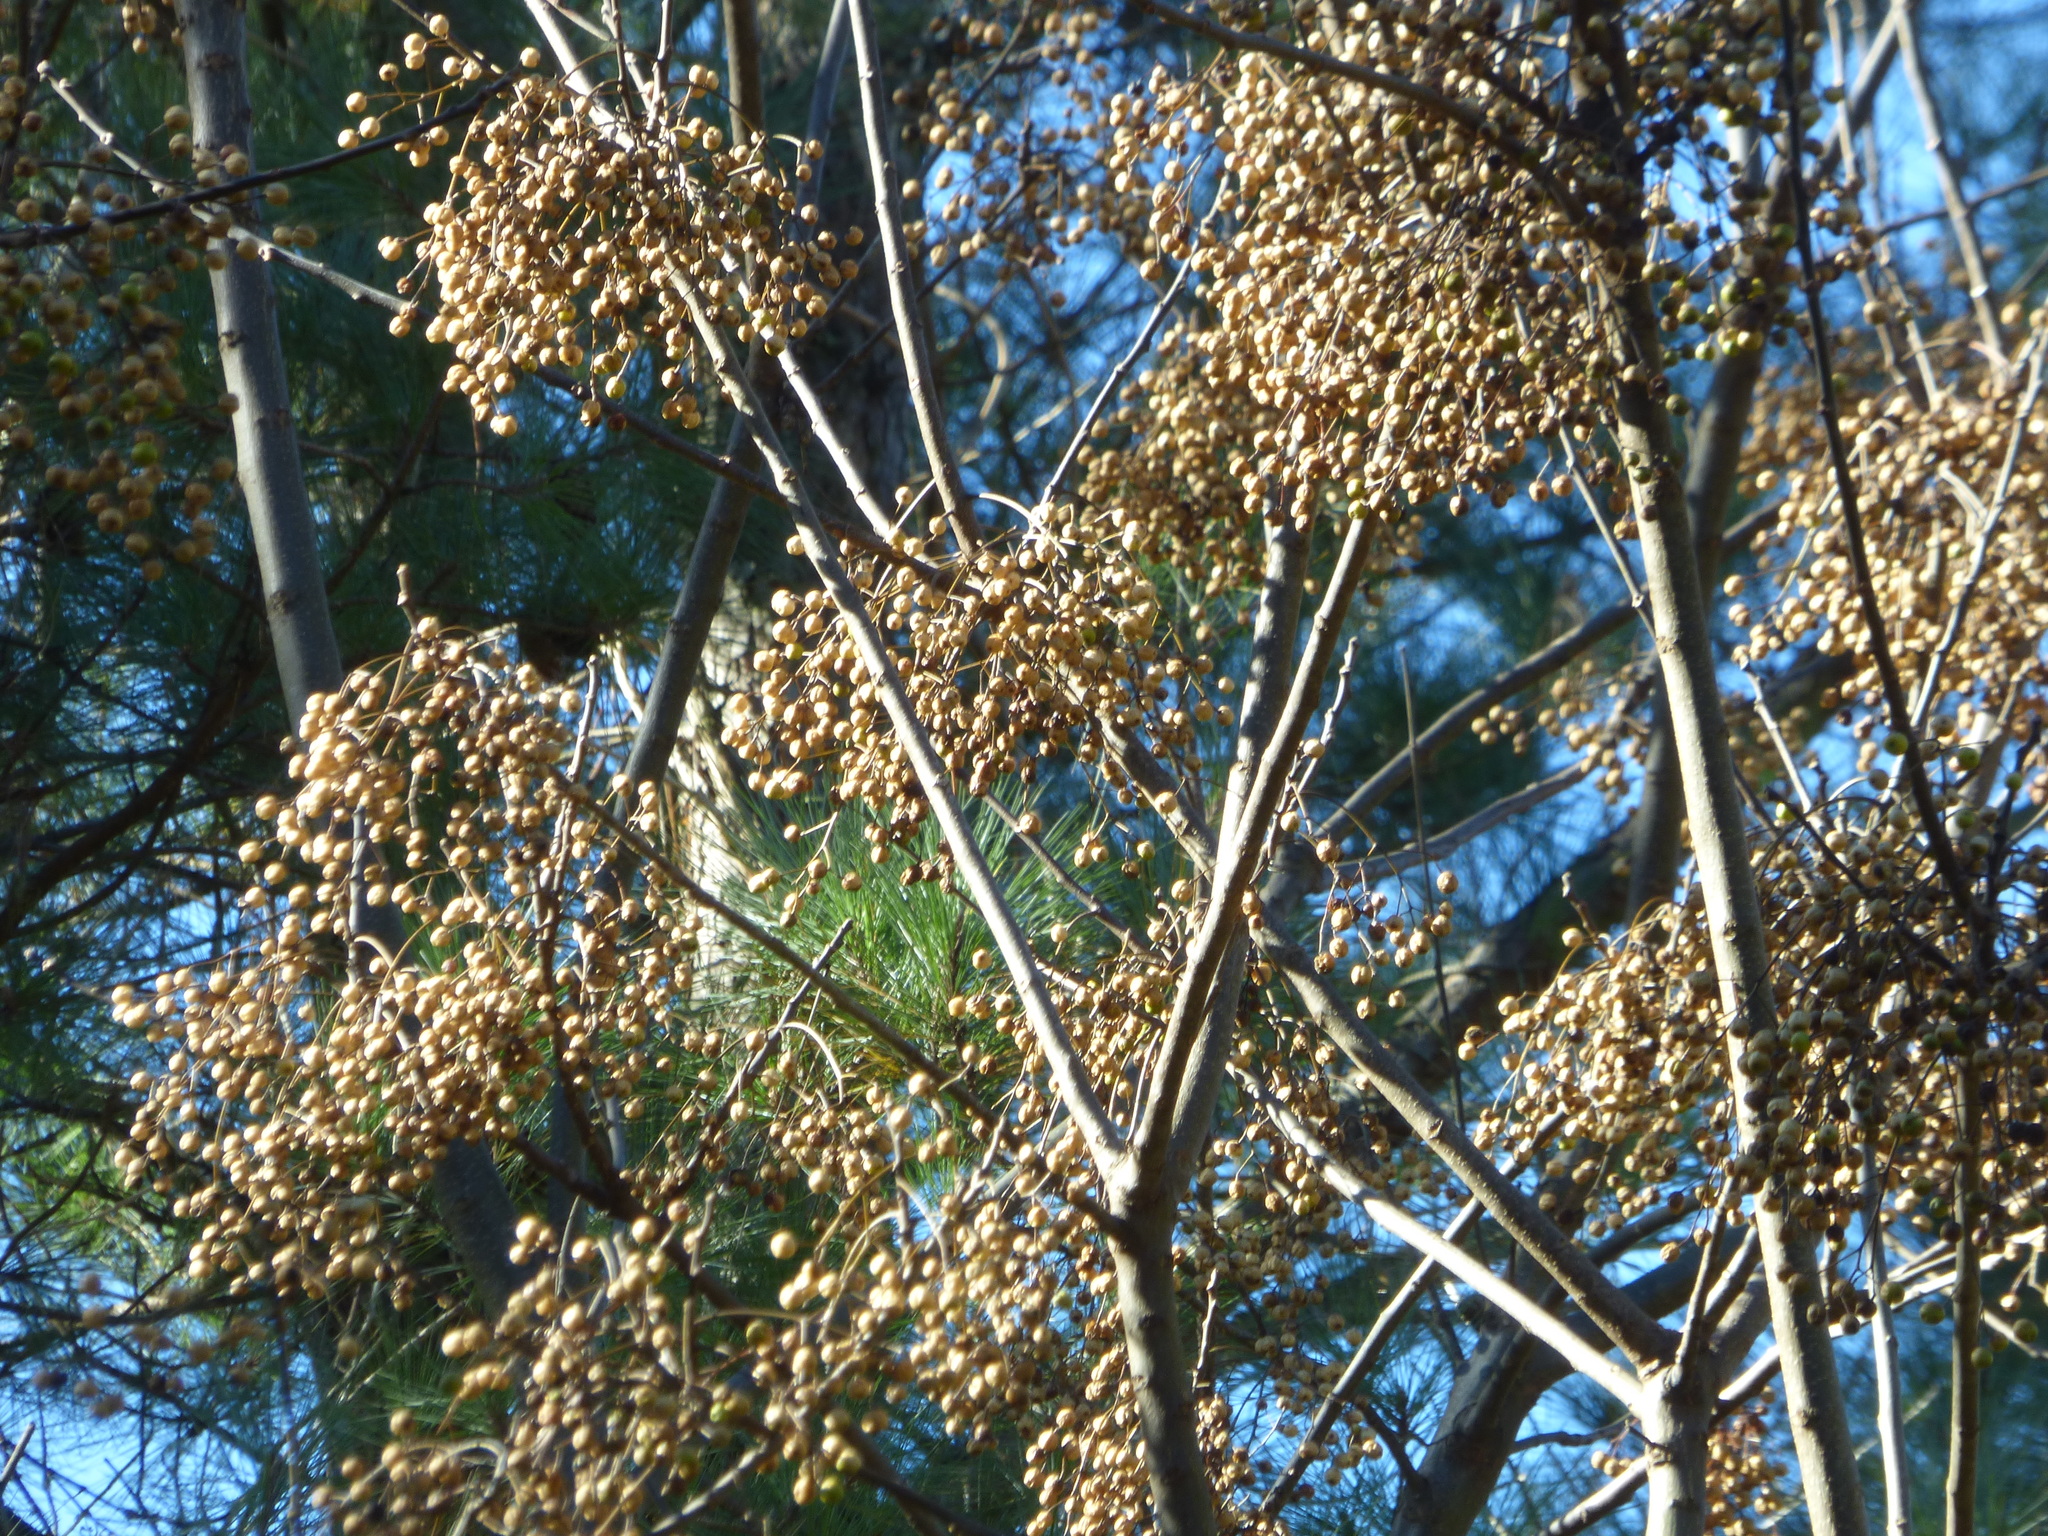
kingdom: Plantae
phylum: Tracheophyta
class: Magnoliopsida
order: Sapindales
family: Meliaceae
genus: Melia
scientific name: Melia azedarach
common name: Chinaberrytree
